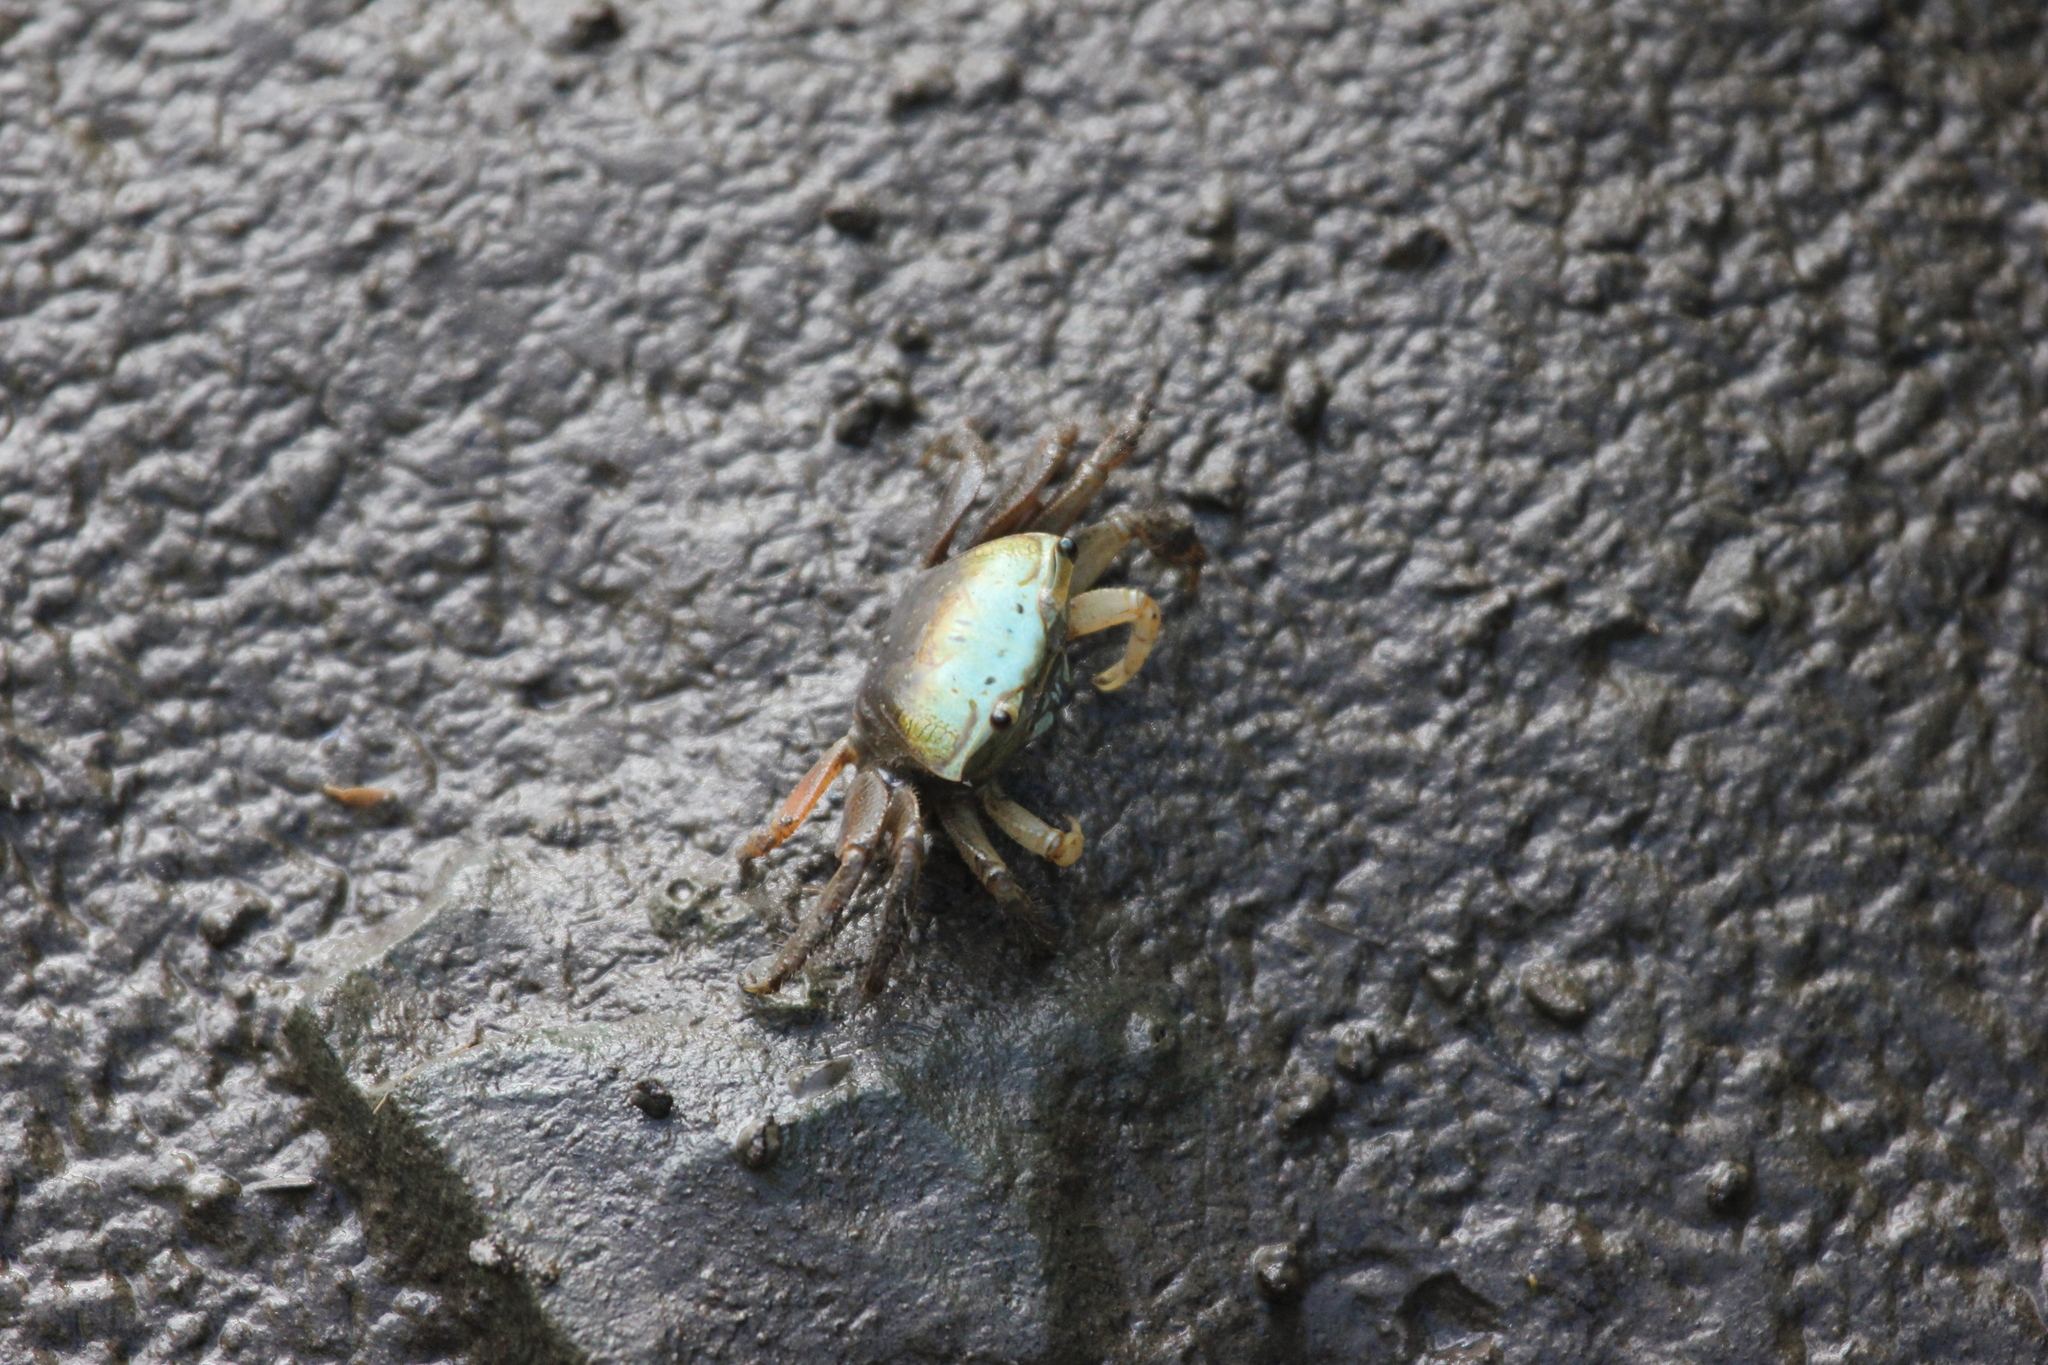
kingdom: Animalia
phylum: Arthropoda
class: Malacostraca
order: Decapoda
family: Ocypodidae
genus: Minuca
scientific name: Minuca longisignalis
